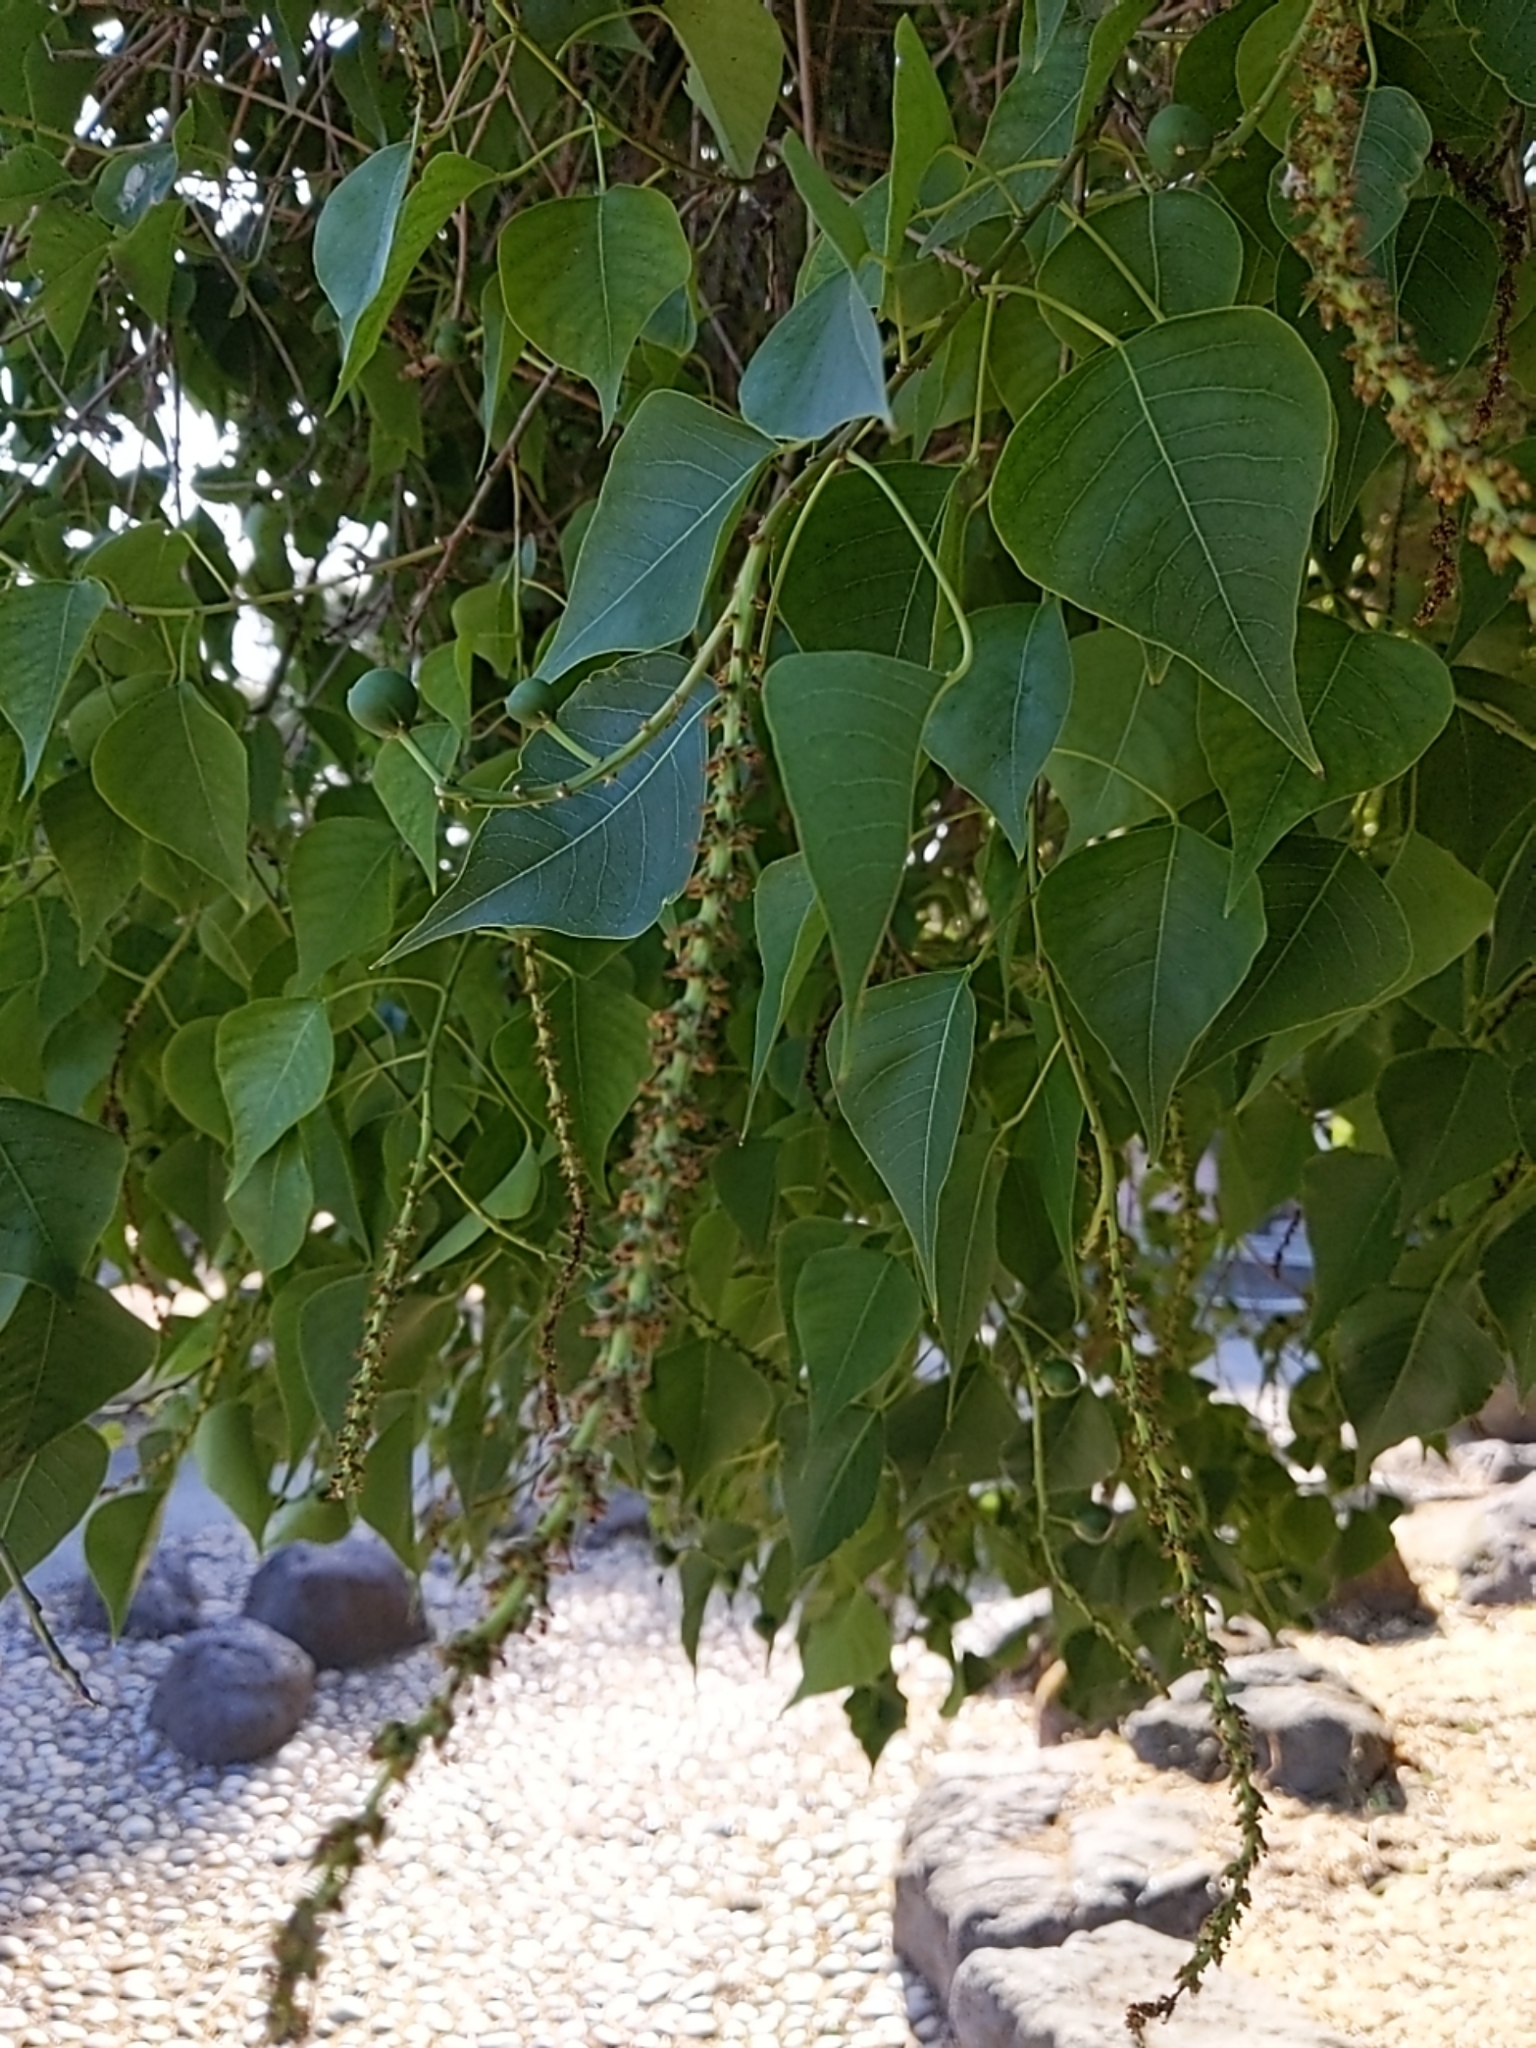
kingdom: Plantae
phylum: Tracheophyta
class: Magnoliopsida
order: Malpighiales
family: Euphorbiaceae
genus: Triadica
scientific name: Triadica sebifera
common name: Chinese tallow
